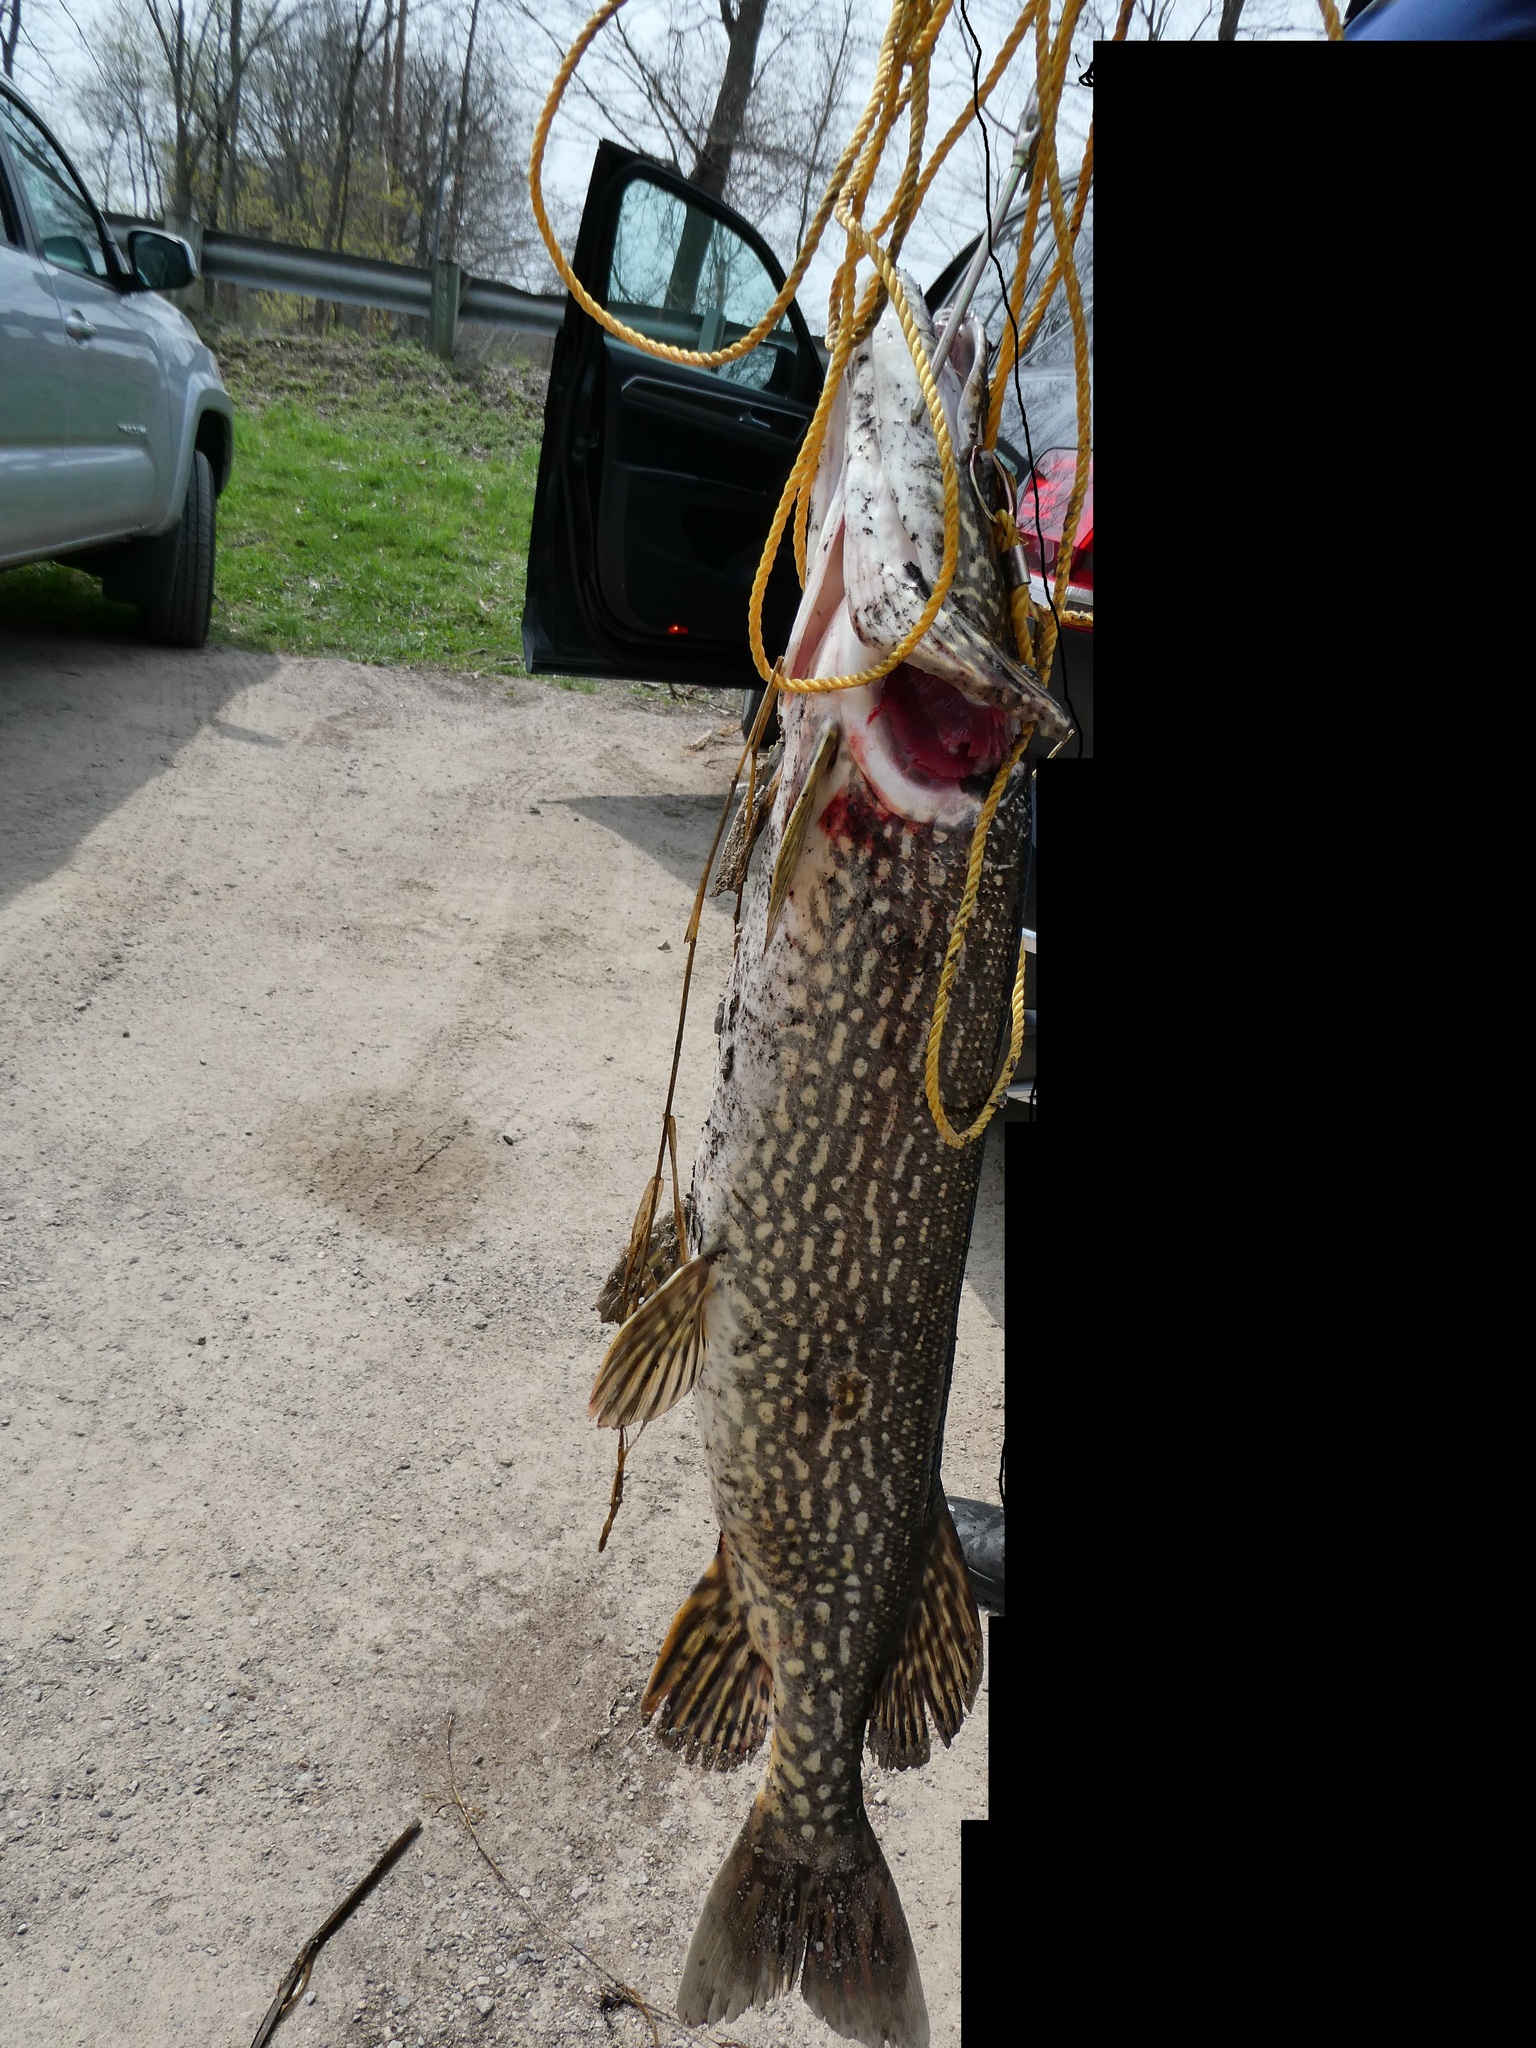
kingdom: Animalia
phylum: Chordata
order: Esociformes
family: Esocidae
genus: Esox
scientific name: Esox lucius
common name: Northern pike
